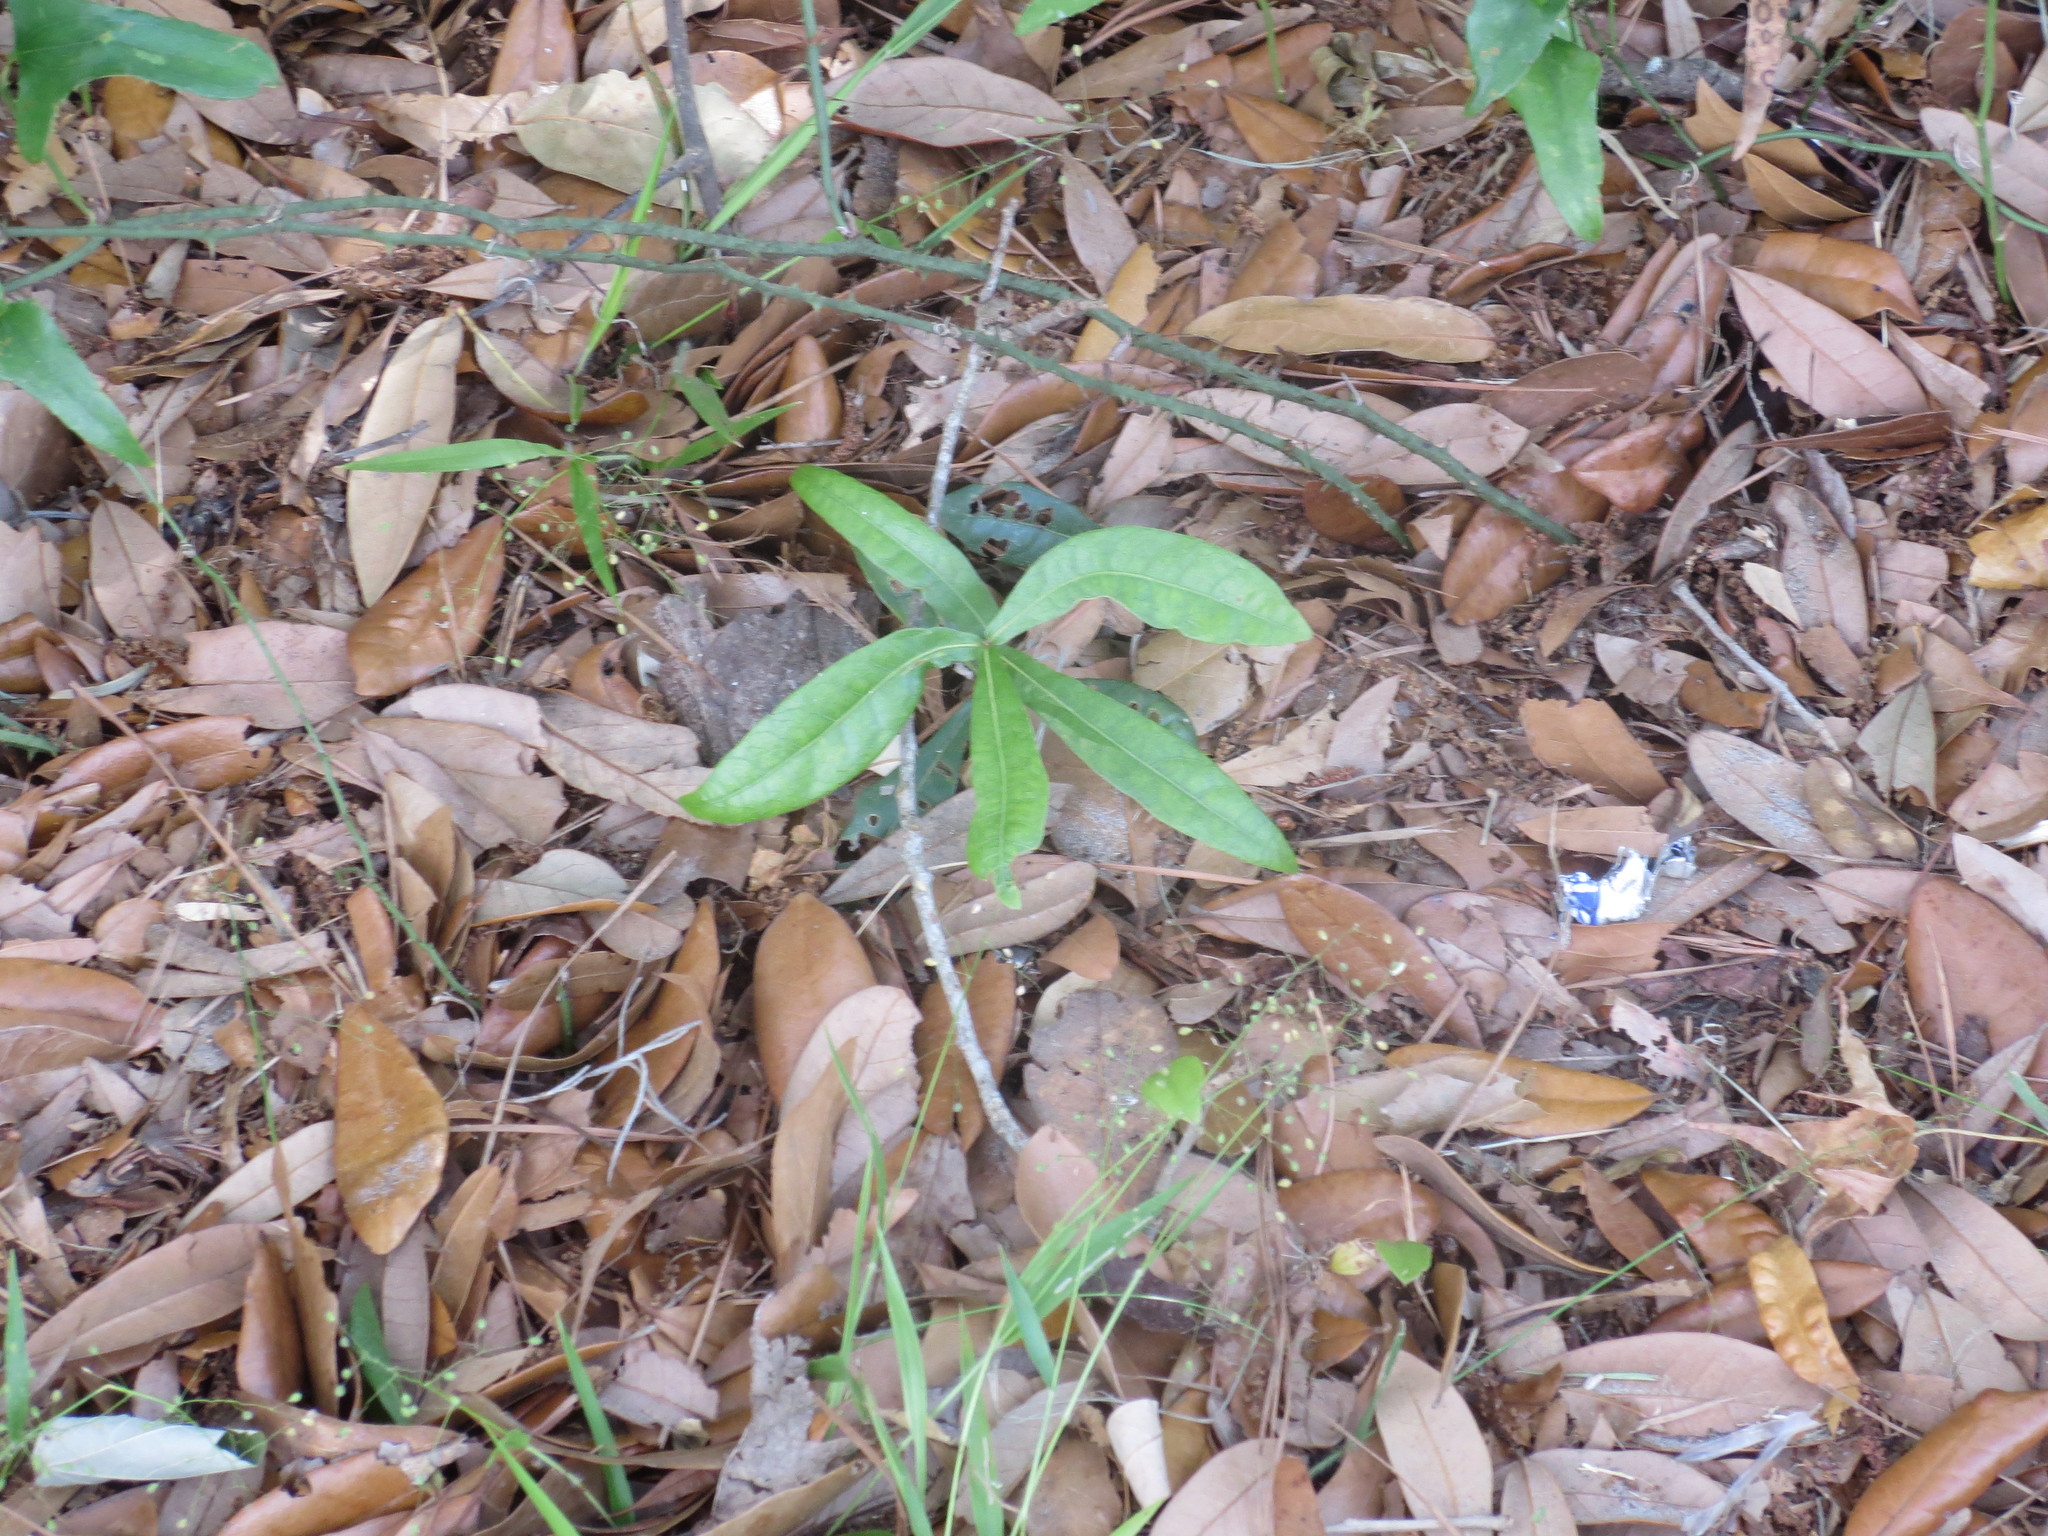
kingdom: Plantae
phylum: Tracheophyta
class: Magnoliopsida
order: Fagales
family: Fagaceae
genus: Quercus
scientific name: Quercus phellos
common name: Willow oak
